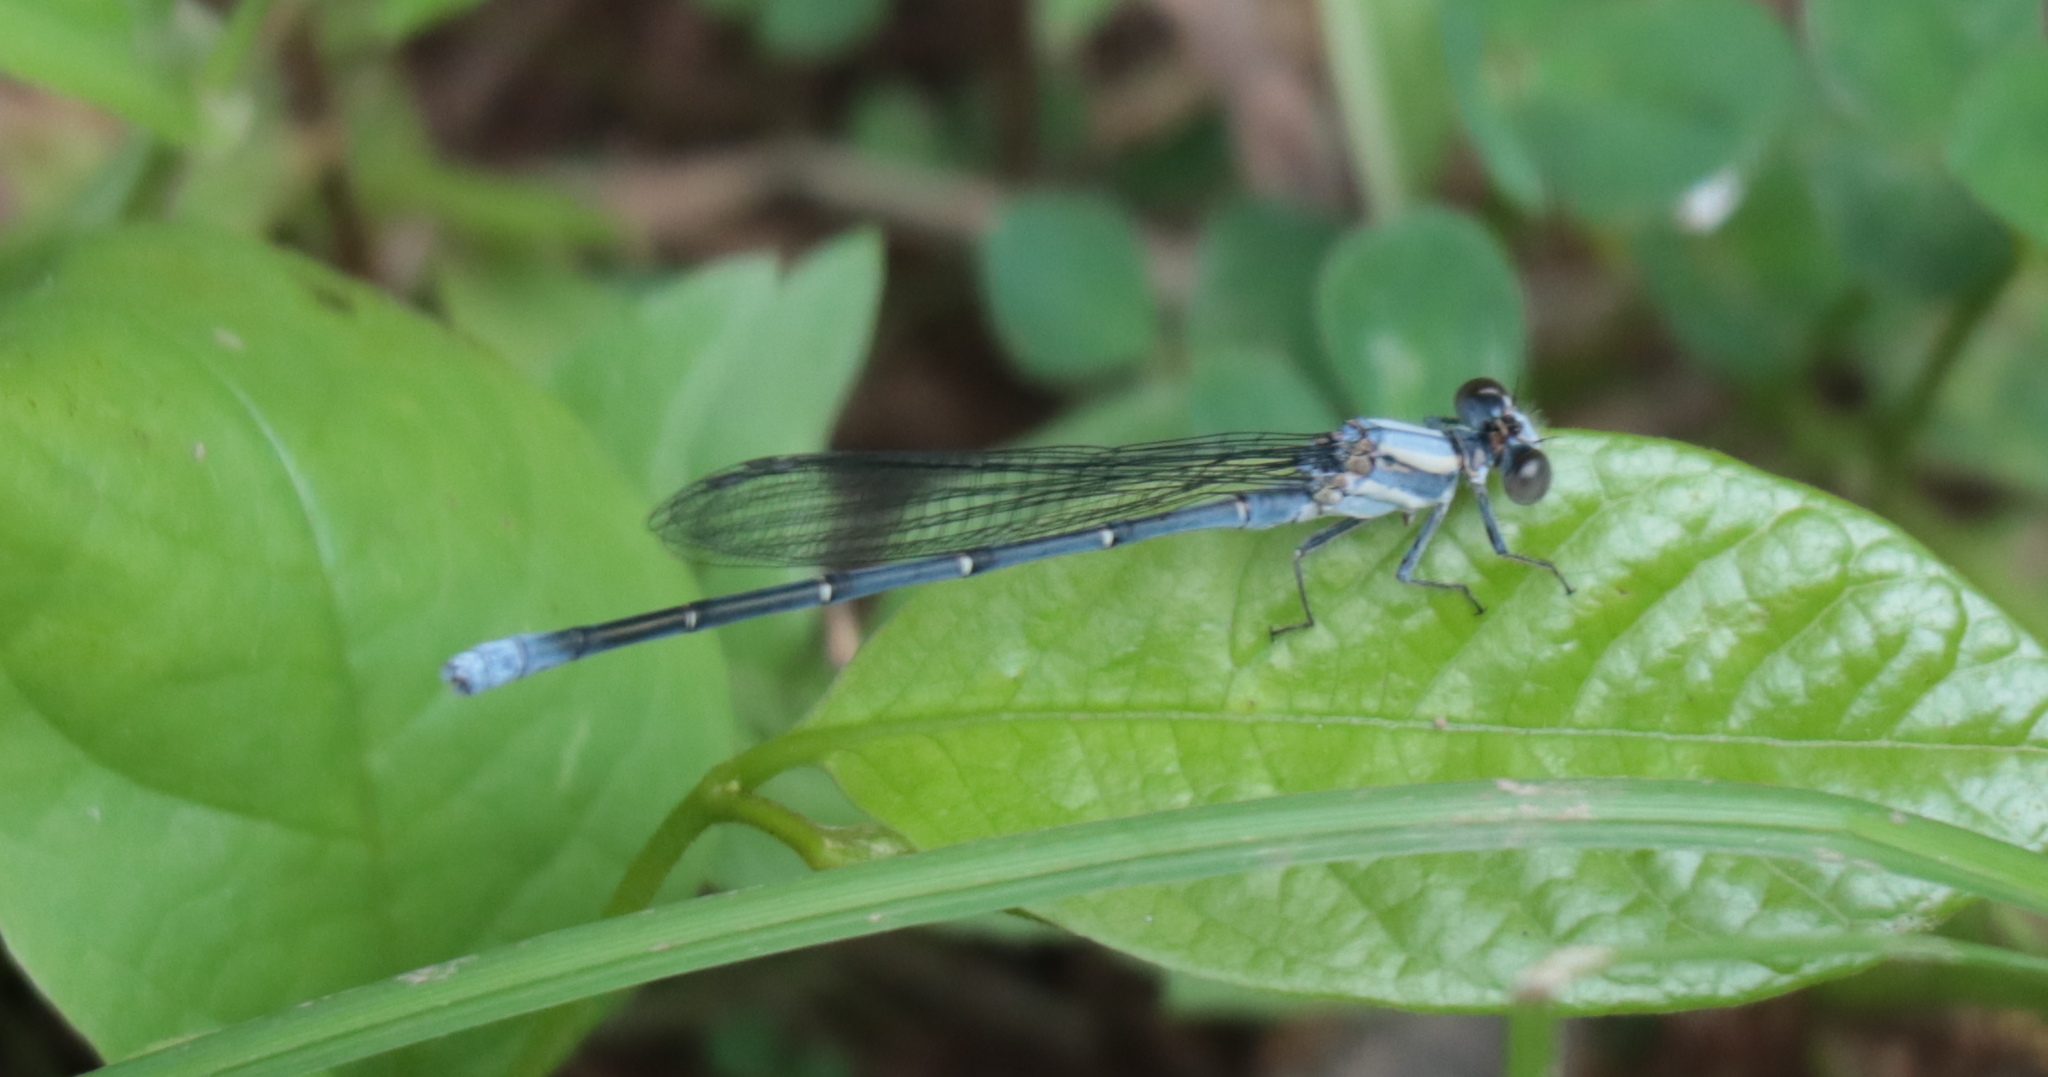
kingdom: Animalia
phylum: Arthropoda
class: Insecta
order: Odonata
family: Coenagrionidae
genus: Argia
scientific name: Argia moesta
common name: Powdered dancer
